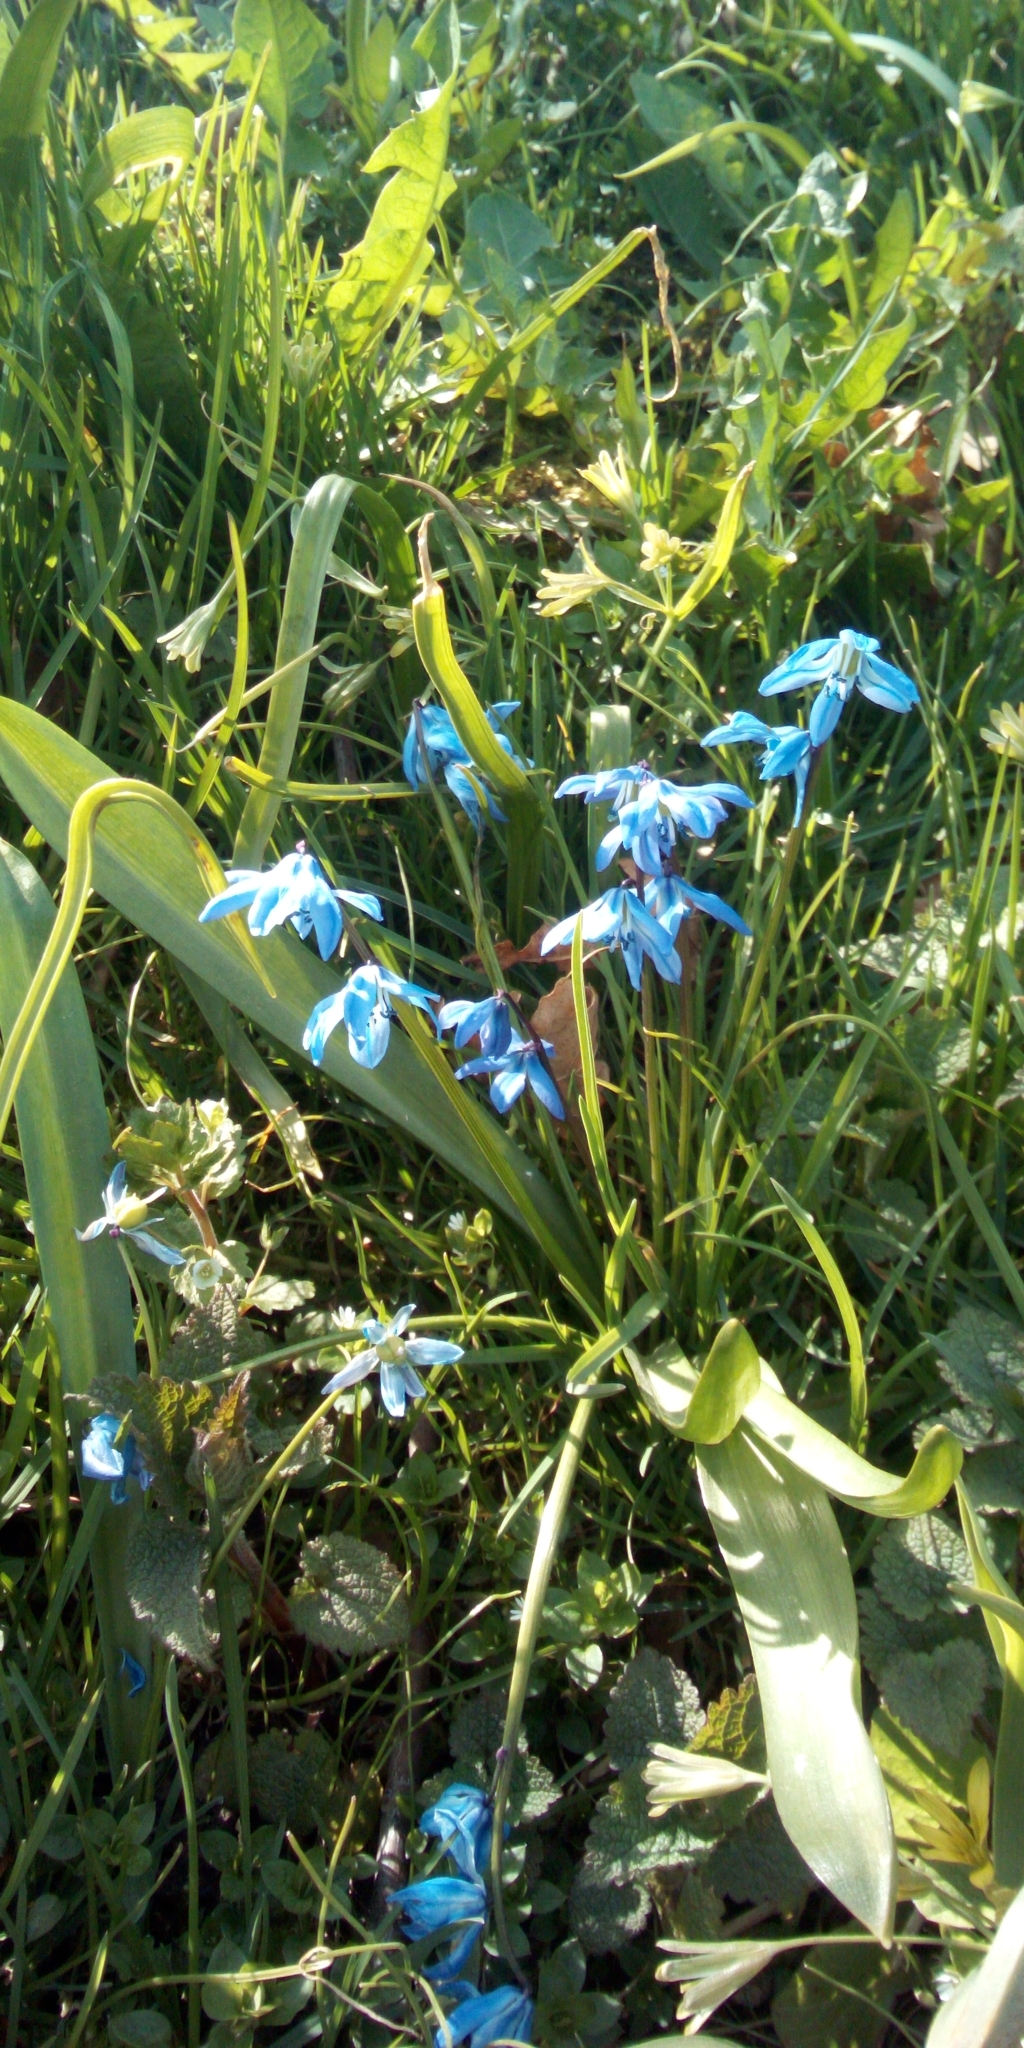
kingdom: Plantae
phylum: Tracheophyta
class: Liliopsida
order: Asparagales
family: Asparagaceae
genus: Scilla
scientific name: Scilla siberica
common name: Siberian squill
